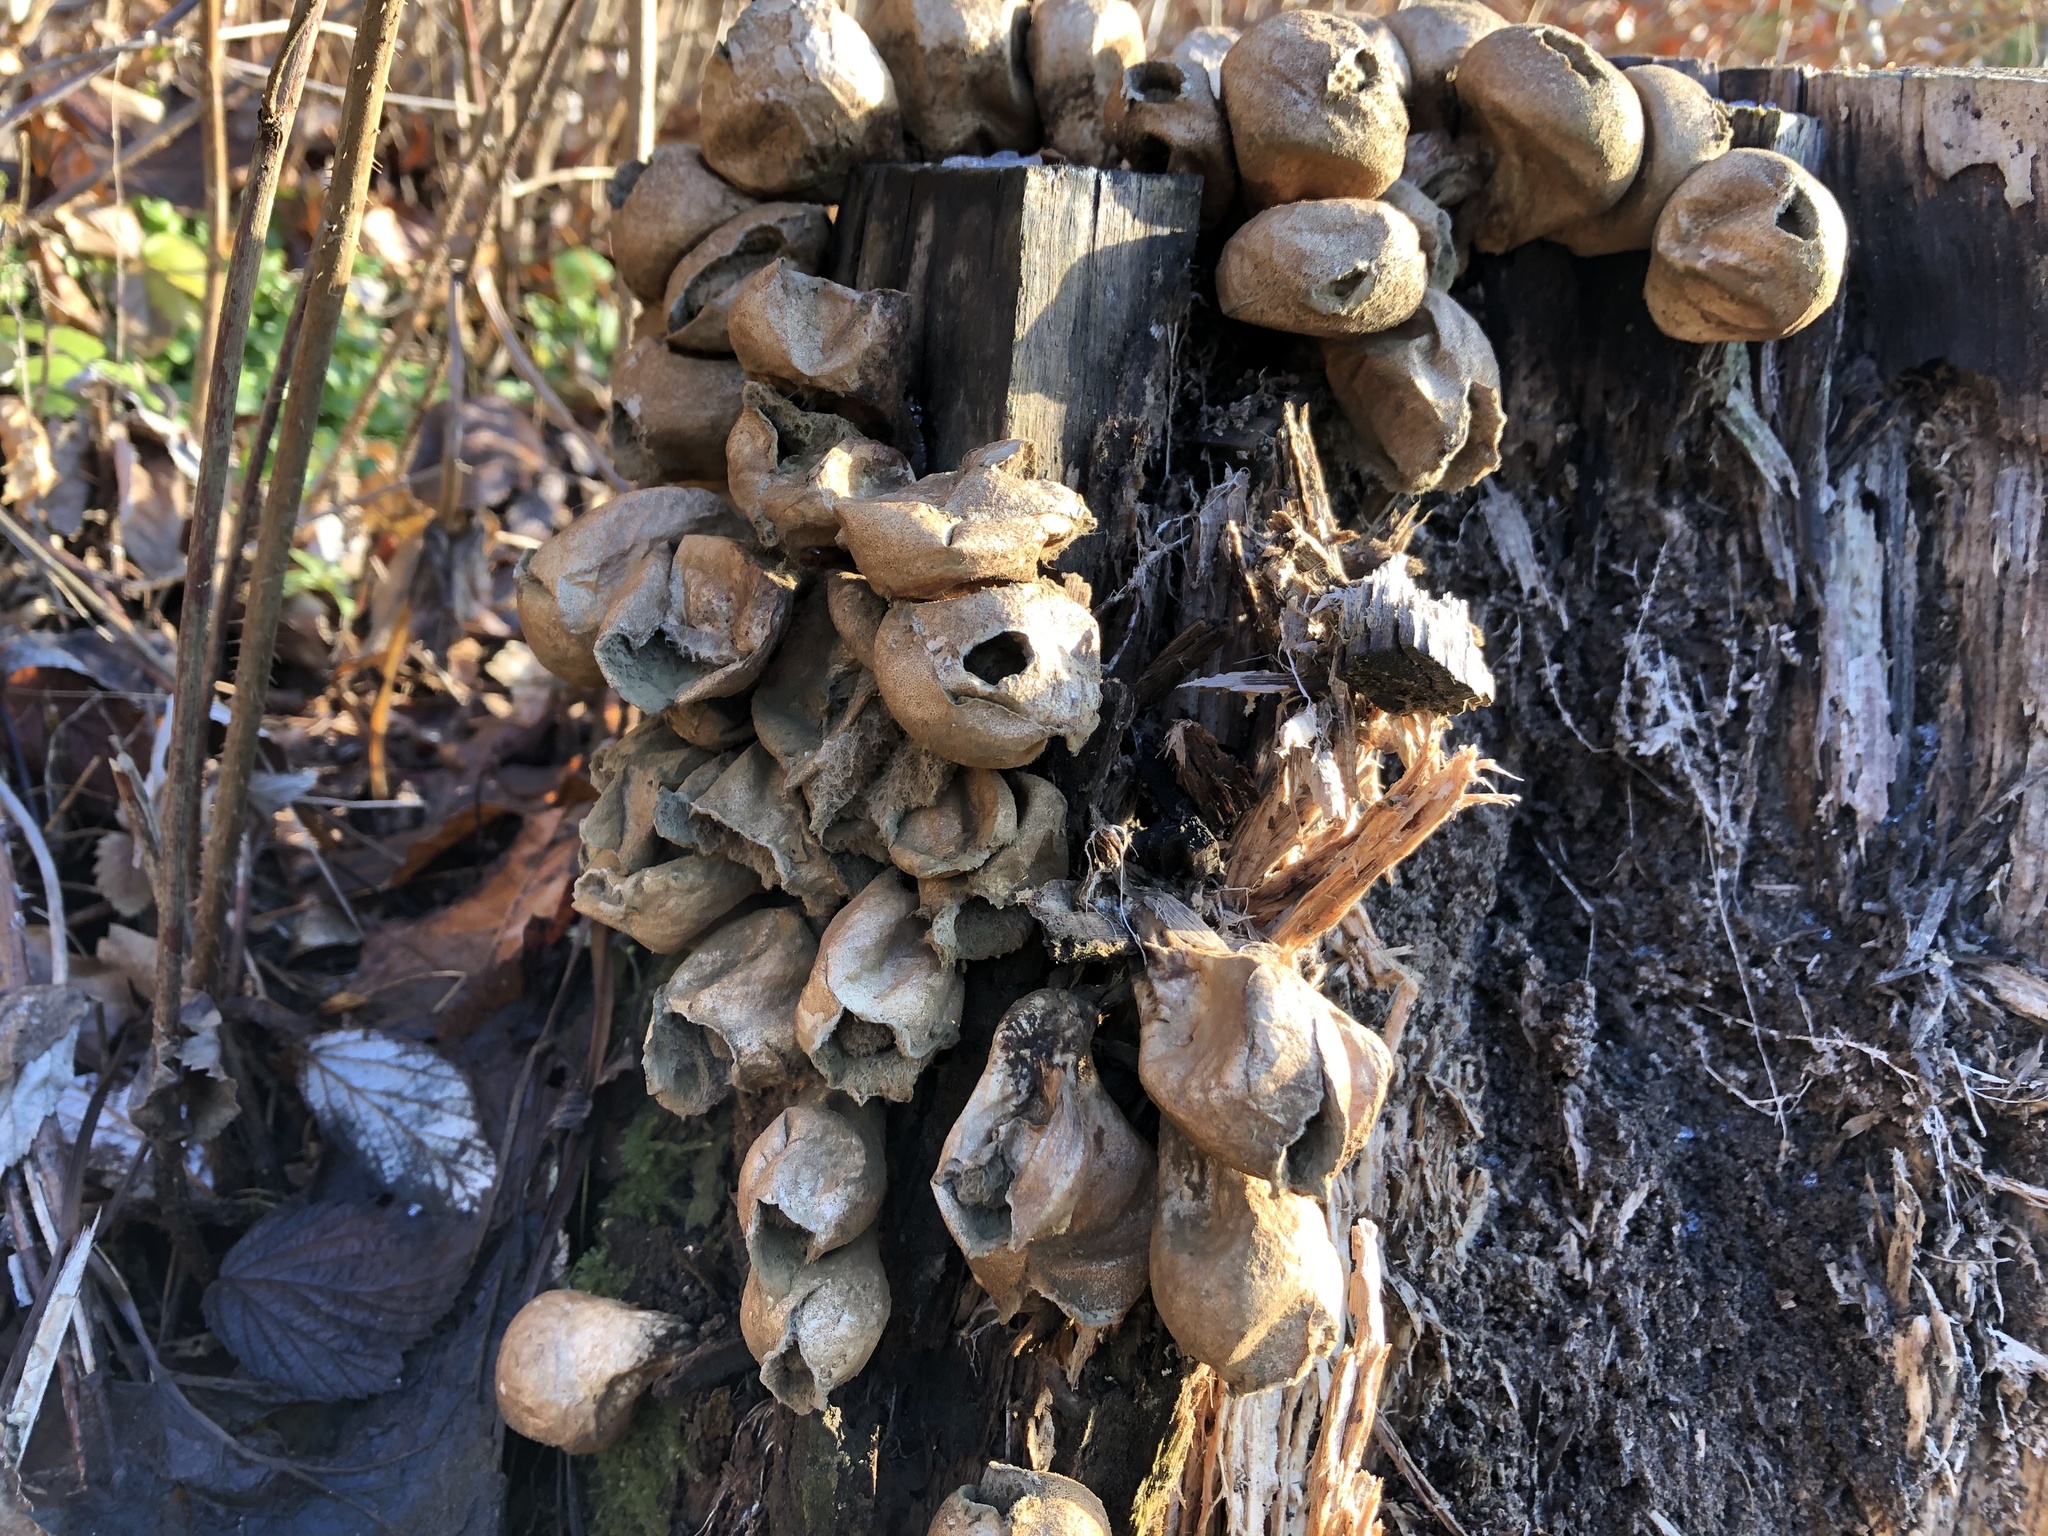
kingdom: Fungi
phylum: Basidiomycota
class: Agaricomycetes
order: Agaricales
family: Lycoperdaceae
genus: Apioperdon
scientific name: Apioperdon pyriforme
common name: Pear-shaped puffball
